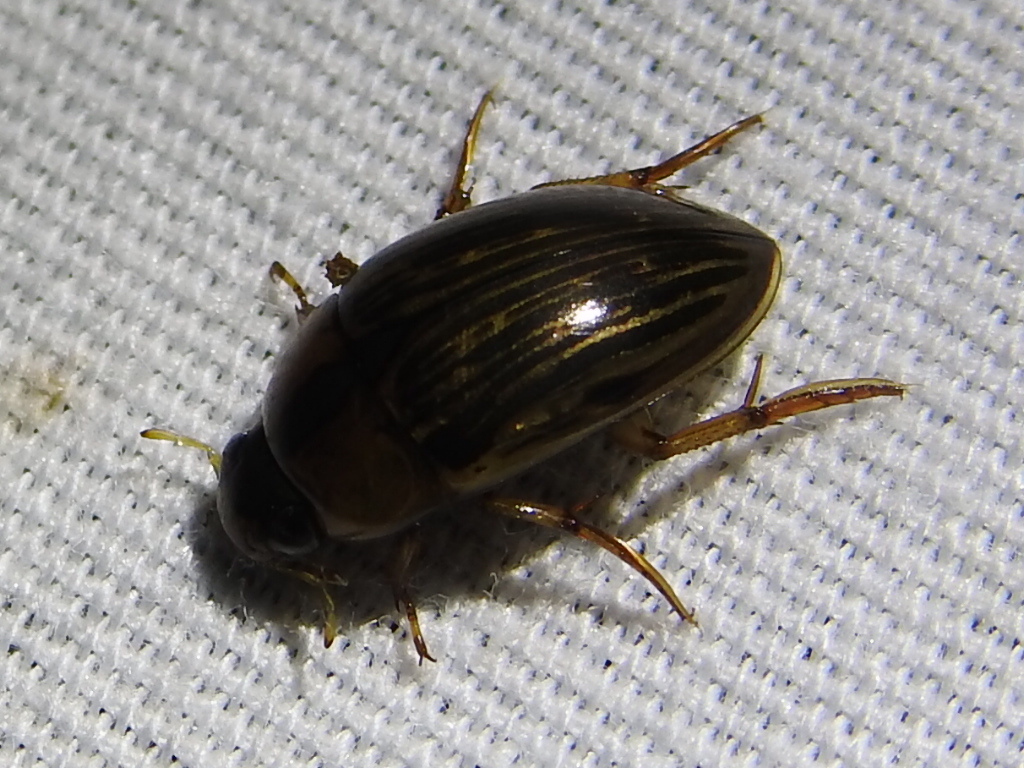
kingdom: Animalia
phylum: Arthropoda
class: Insecta
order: Coleoptera
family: Hydrophilidae
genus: Tropisternus
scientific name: Tropisternus collaris
